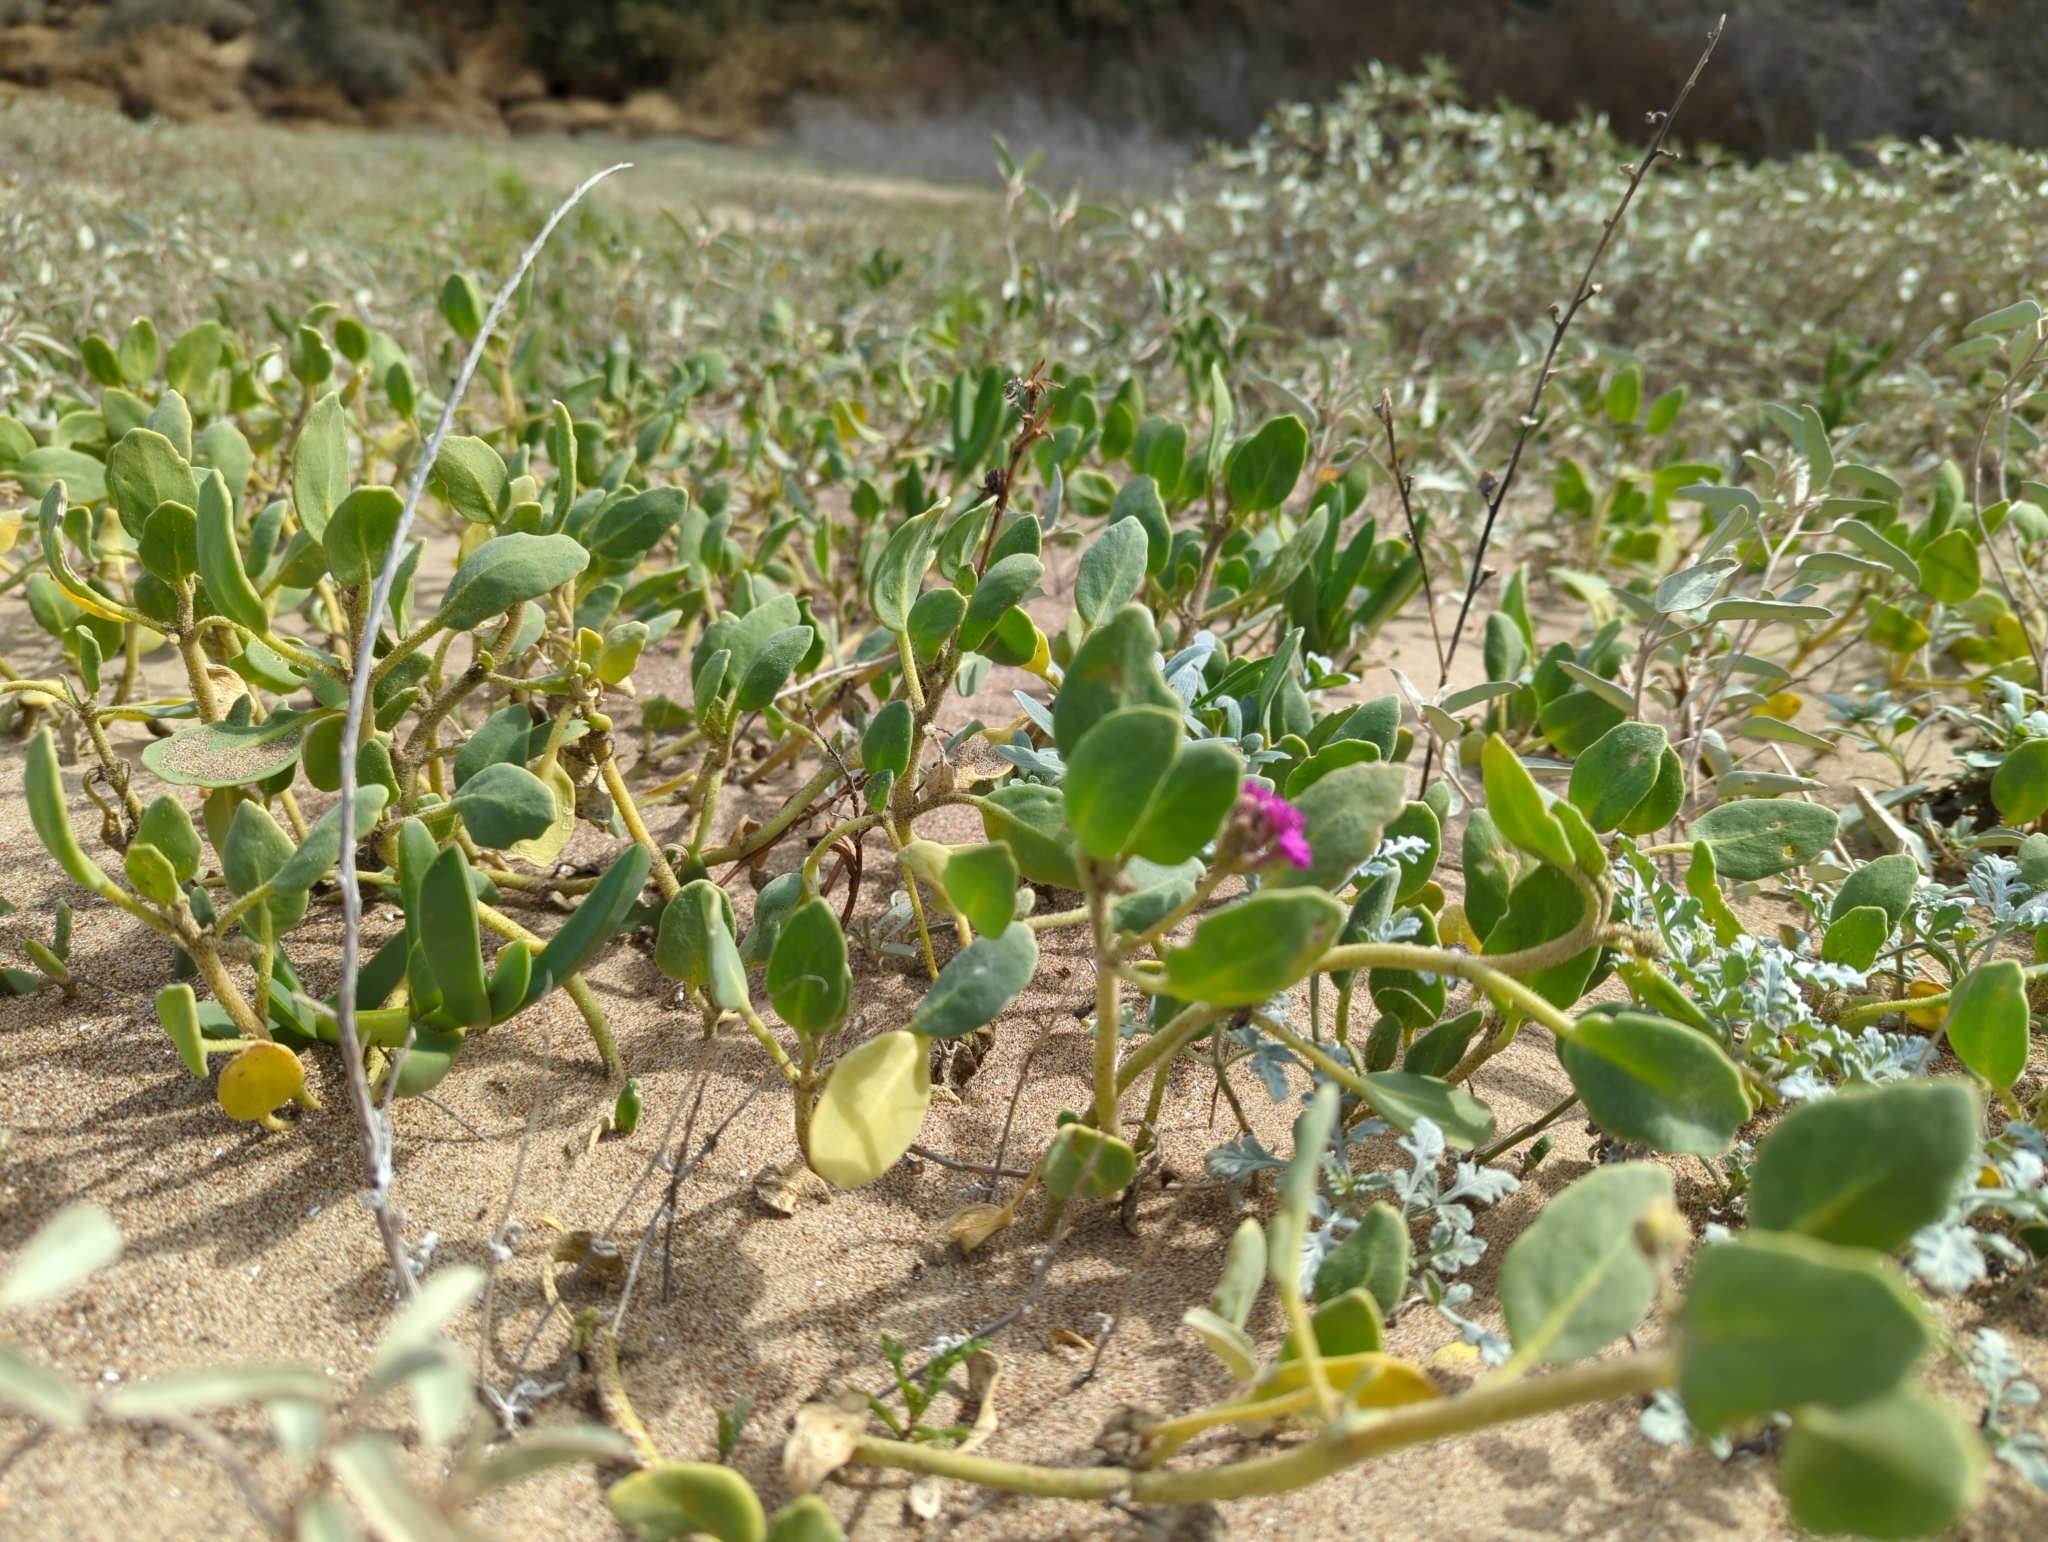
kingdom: Plantae
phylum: Tracheophyta
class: Magnoliopsida
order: Caryophyllales
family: Nyctaginaceae
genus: Abronia
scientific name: Abronia maritima
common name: Red sand-verbena
